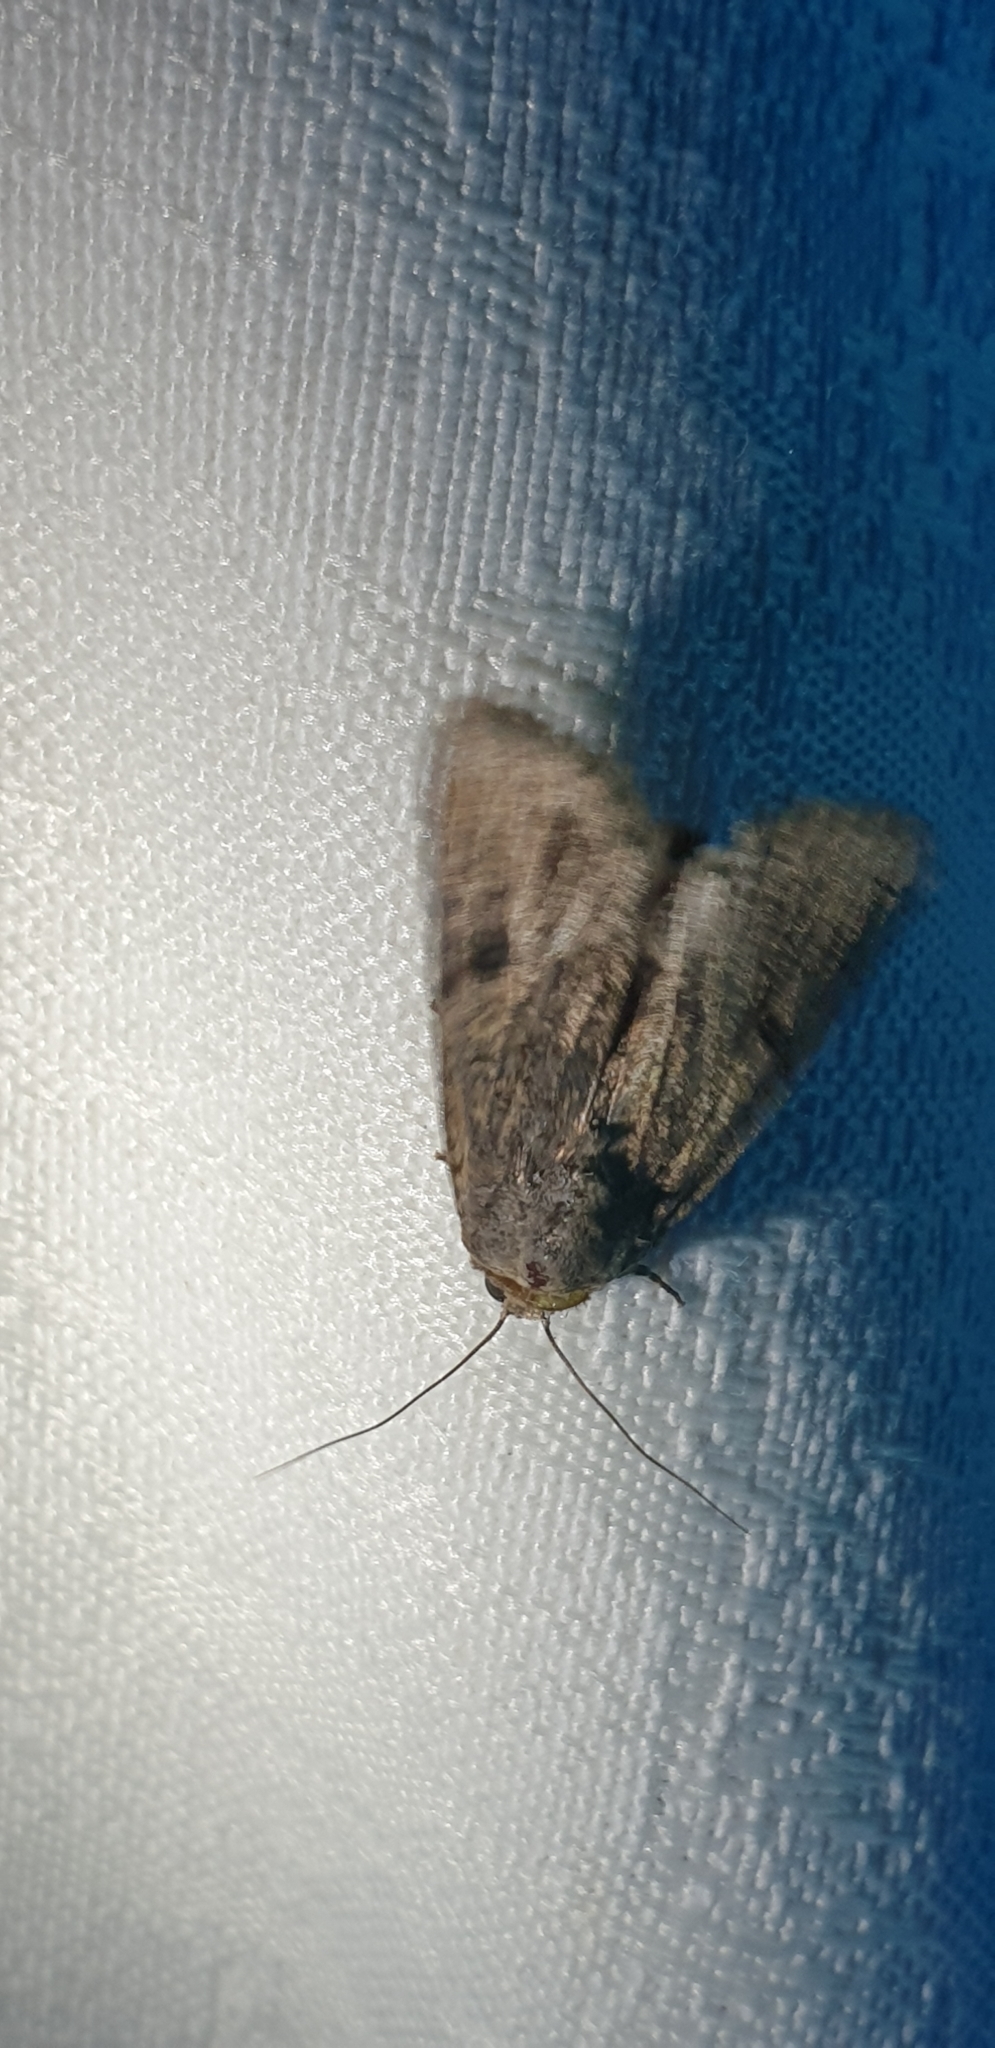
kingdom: Animalia
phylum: Arthropoda
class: Insecta
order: Lepidoptera
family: Noctuidae
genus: Agrotis
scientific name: Agrotis porphyricollis
